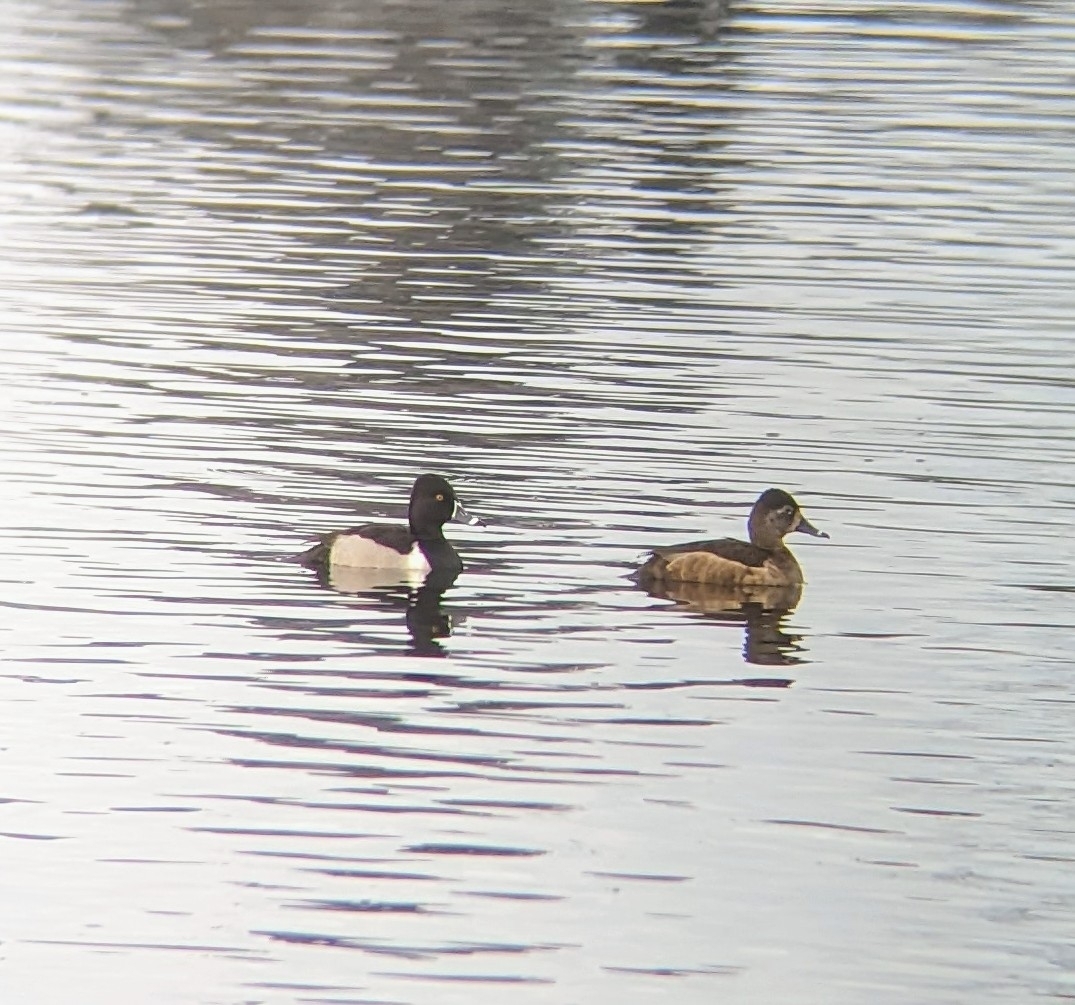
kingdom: Animalia
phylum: Chordata
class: Aves
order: Anseriformes
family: Anatidae
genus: Aythya
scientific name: Aythya collaris
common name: Ring-necked duck
